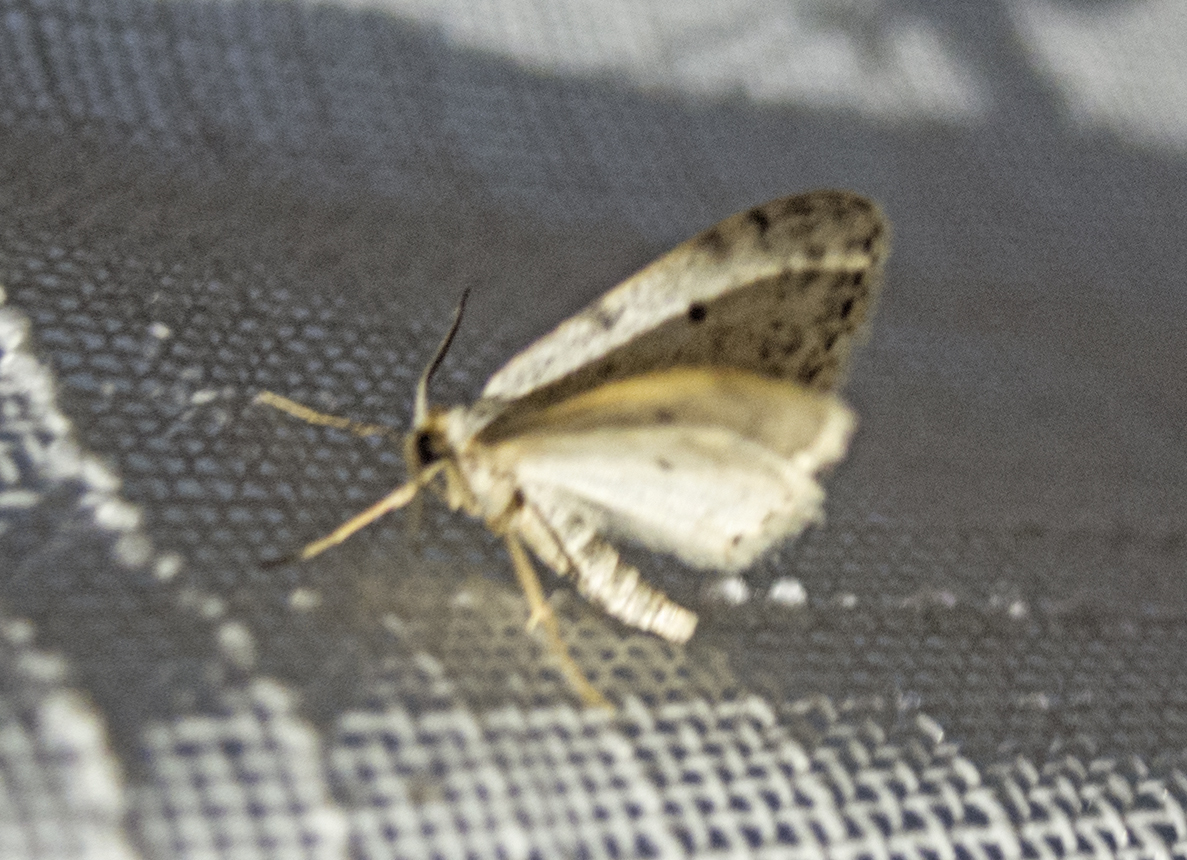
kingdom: Animalia
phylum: Arthropoda
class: Insecta
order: Lepidoptera
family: Geometridae
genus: Idaea
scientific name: Idaea camparia
